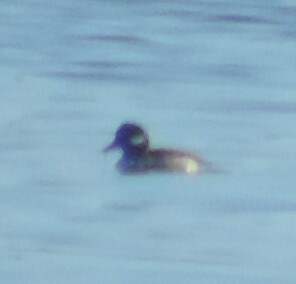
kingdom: Animalia
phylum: Chordata
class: Aves
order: Anseriformes
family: Anatidae
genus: Bucephala
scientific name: Bucephala albeola
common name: Bufflehead
